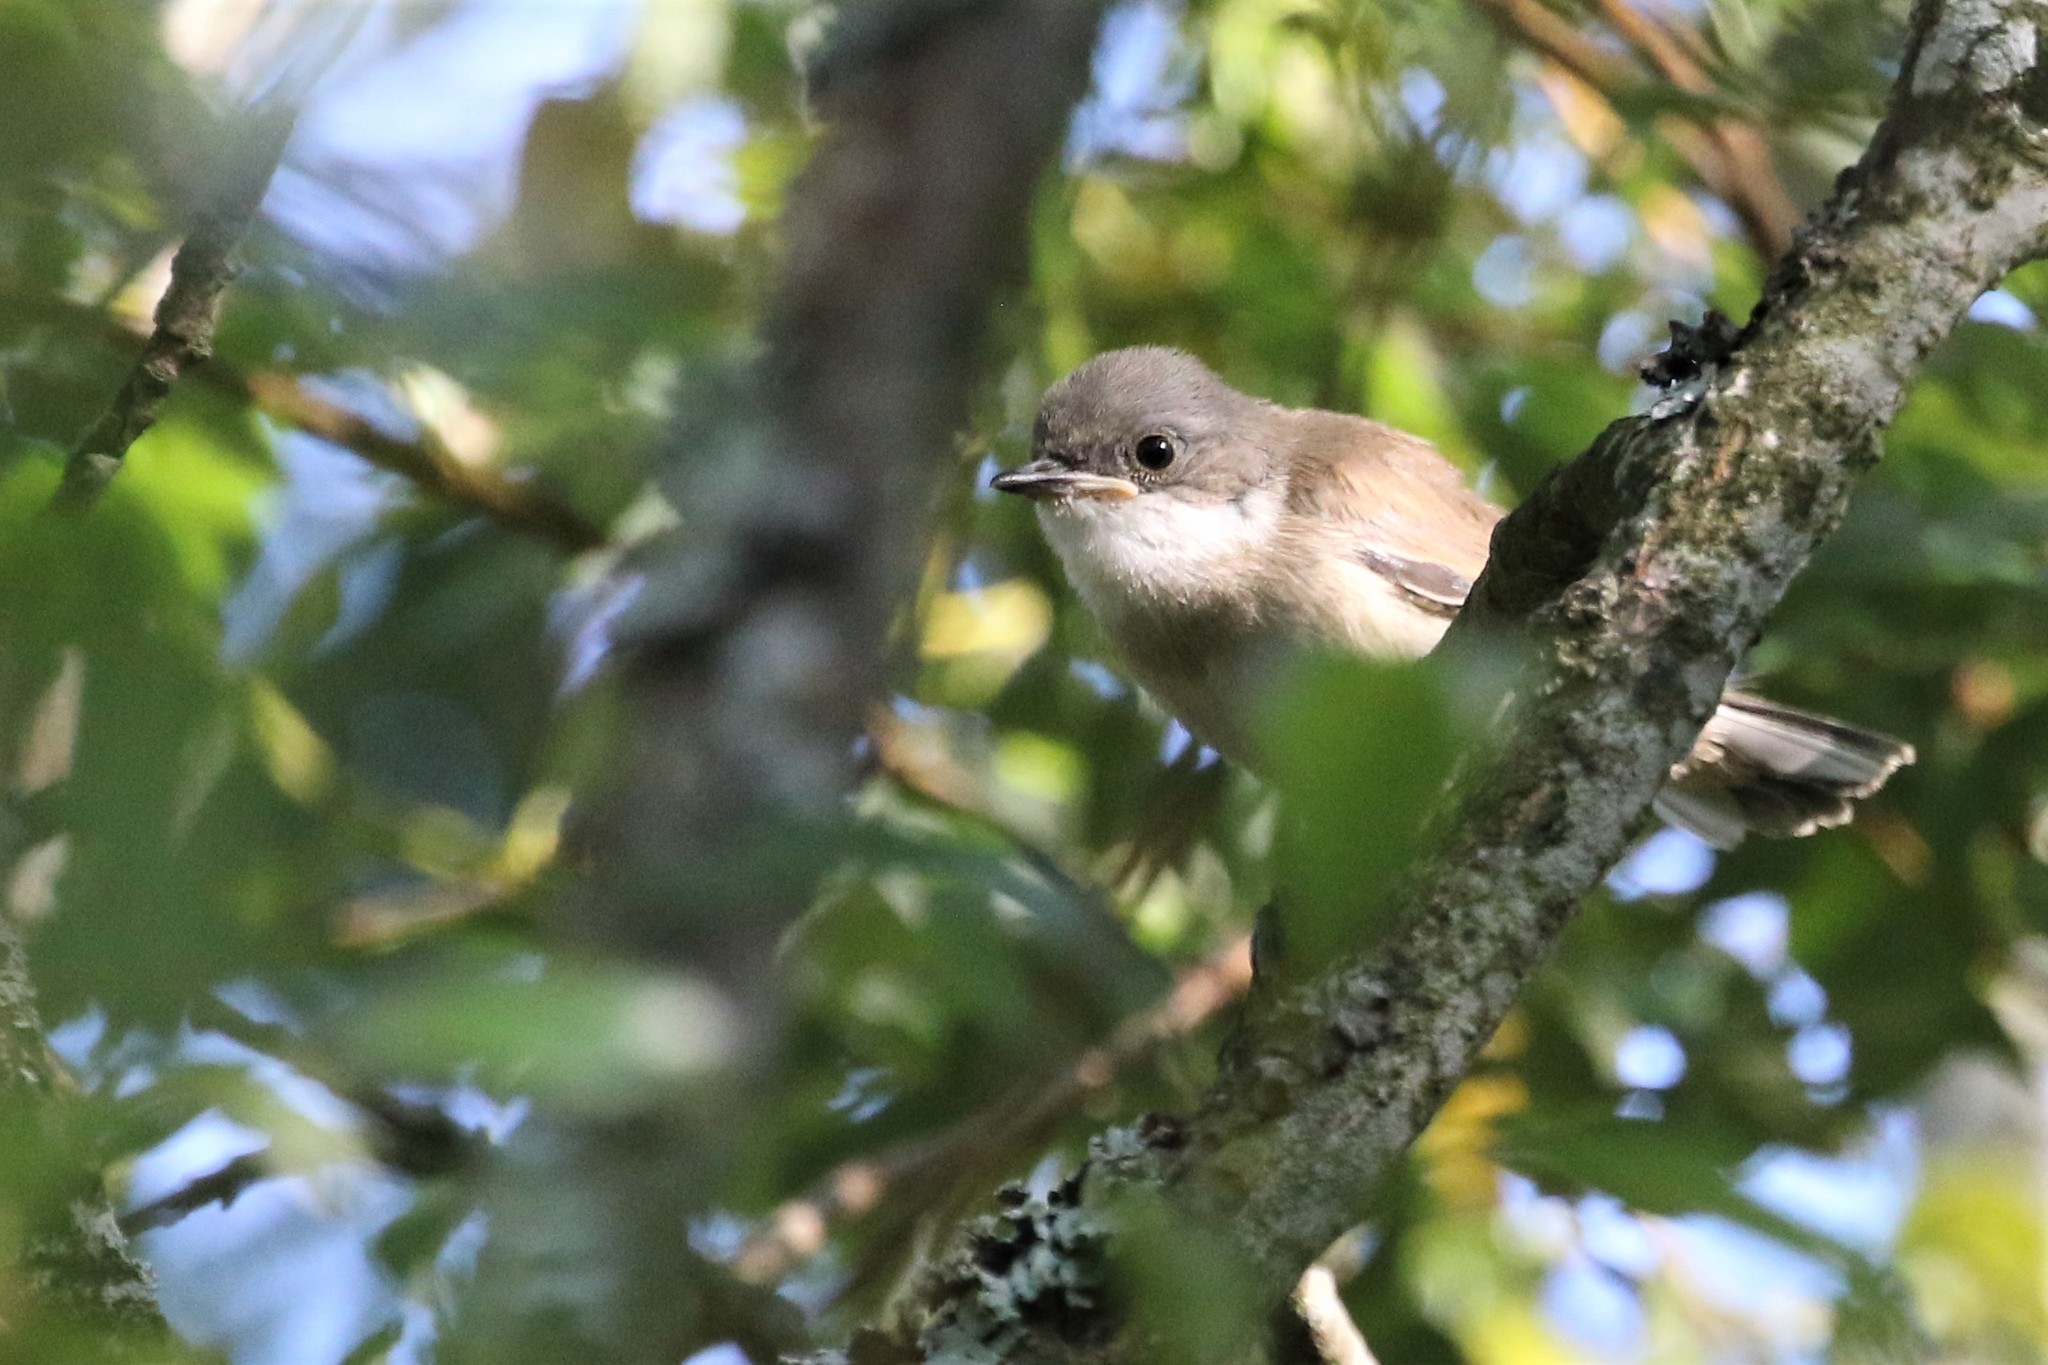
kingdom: Animalia
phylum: Chordata
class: Aves
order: Passeriformes
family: Sylviidae
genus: Sylvia
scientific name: Sylvia communis
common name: Common whitethroat
